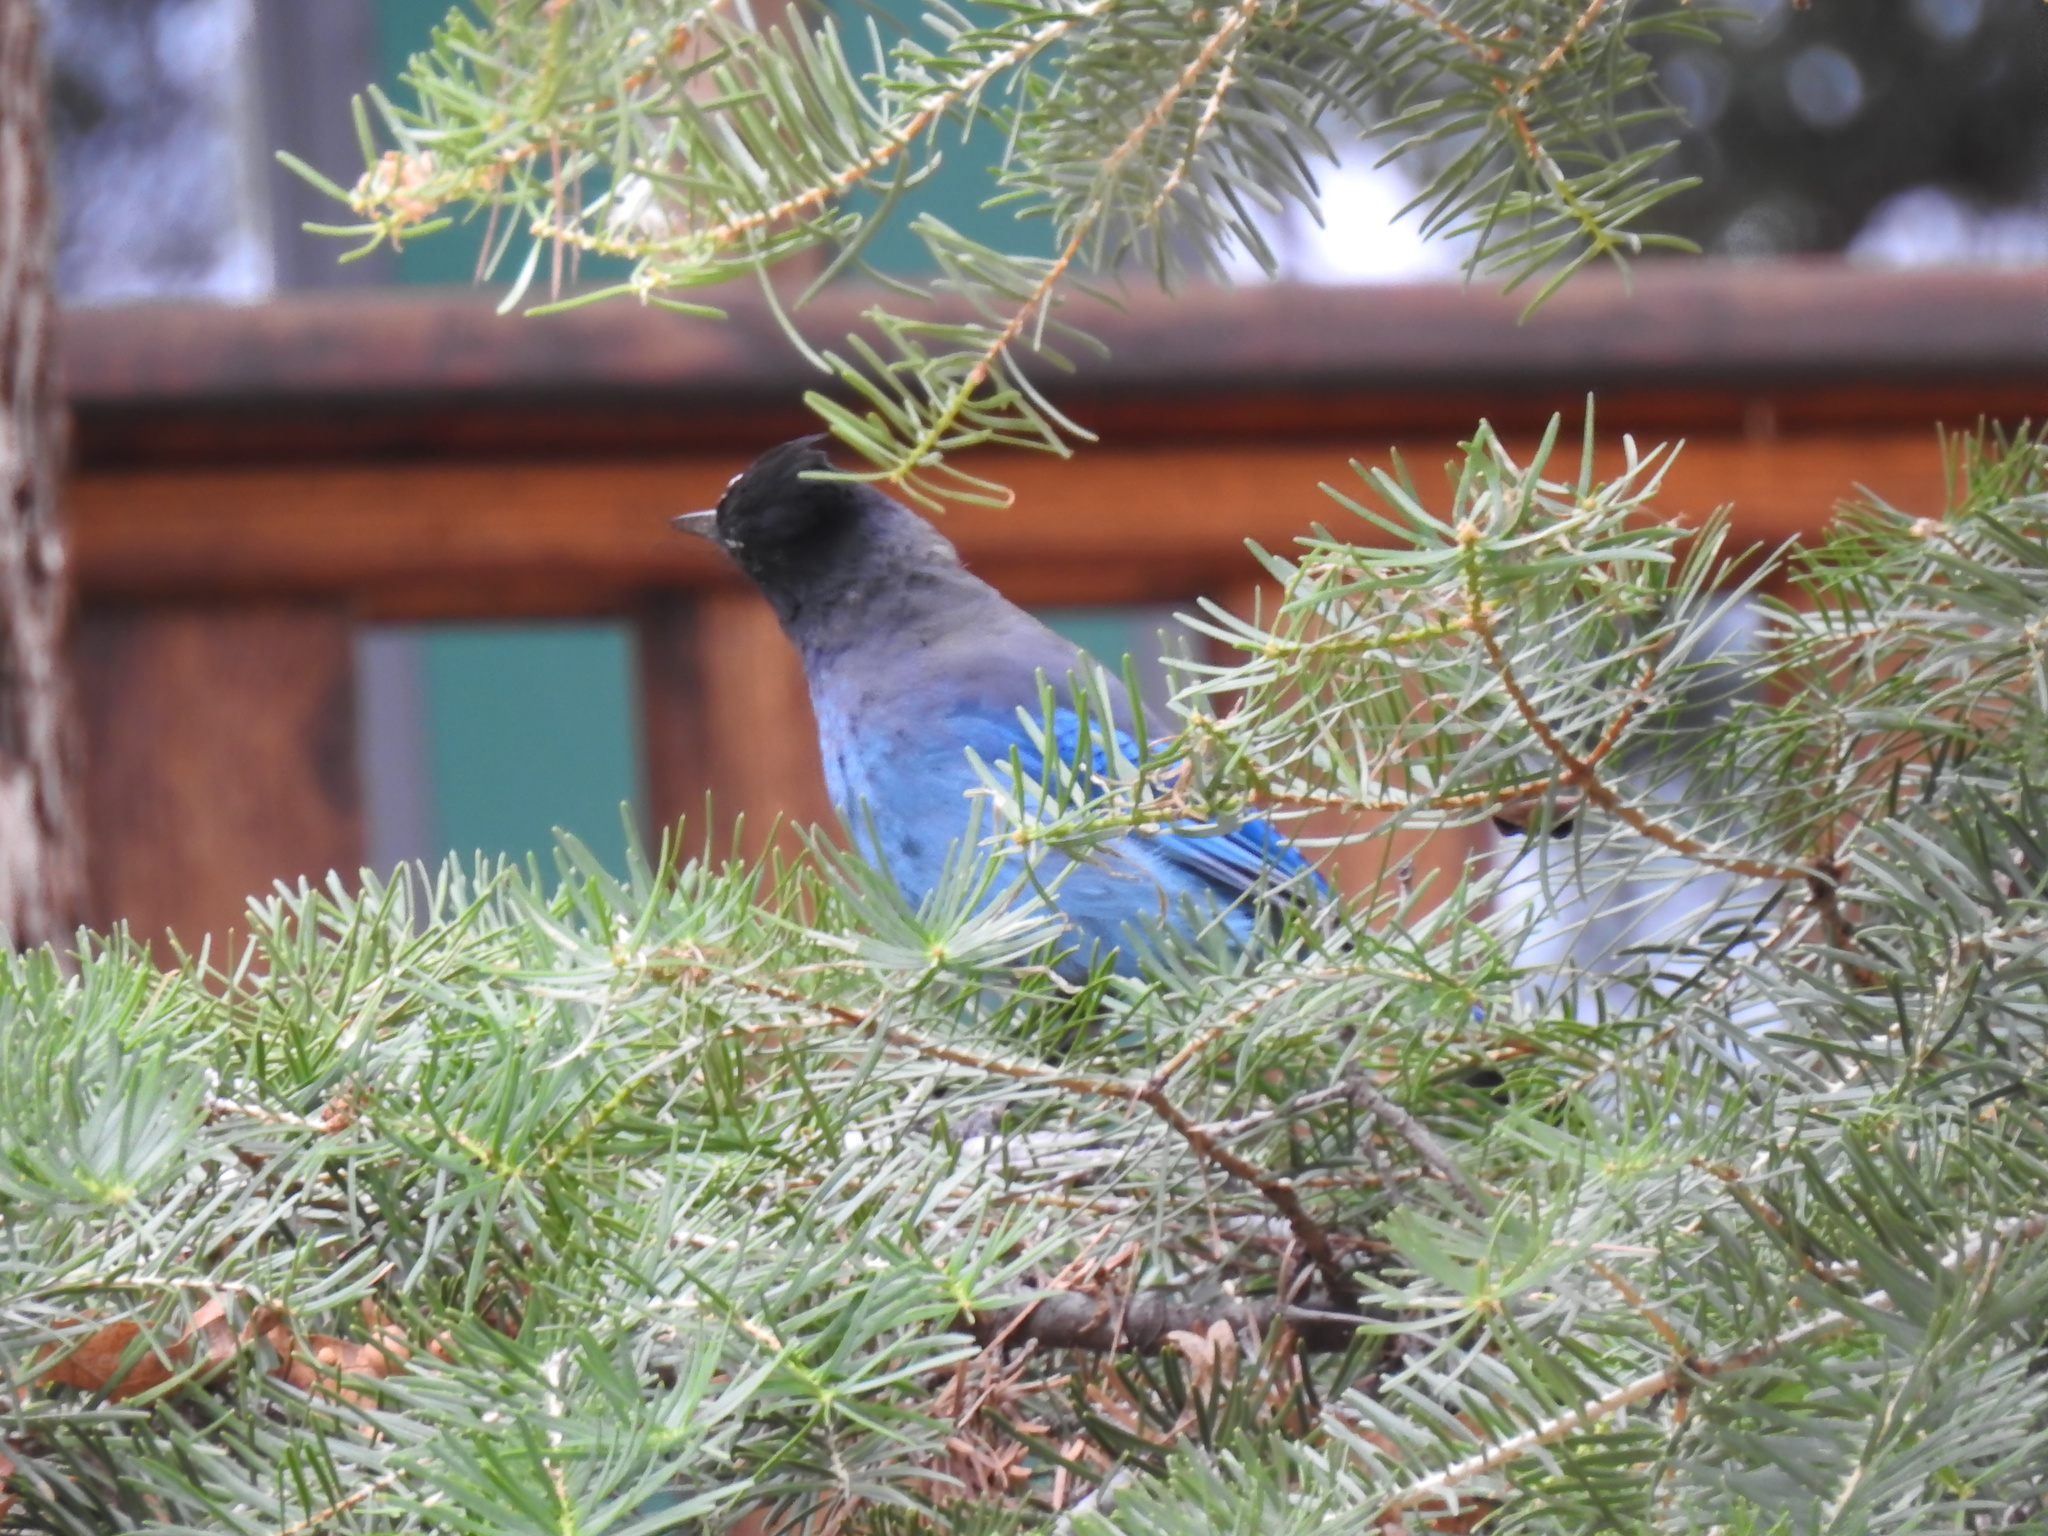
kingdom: Animalia
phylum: Chordata
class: Aves
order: Passeriformes
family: Corvidae
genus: Cyanocitta
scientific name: Cyanocitta stelleri
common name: Steller's jay
